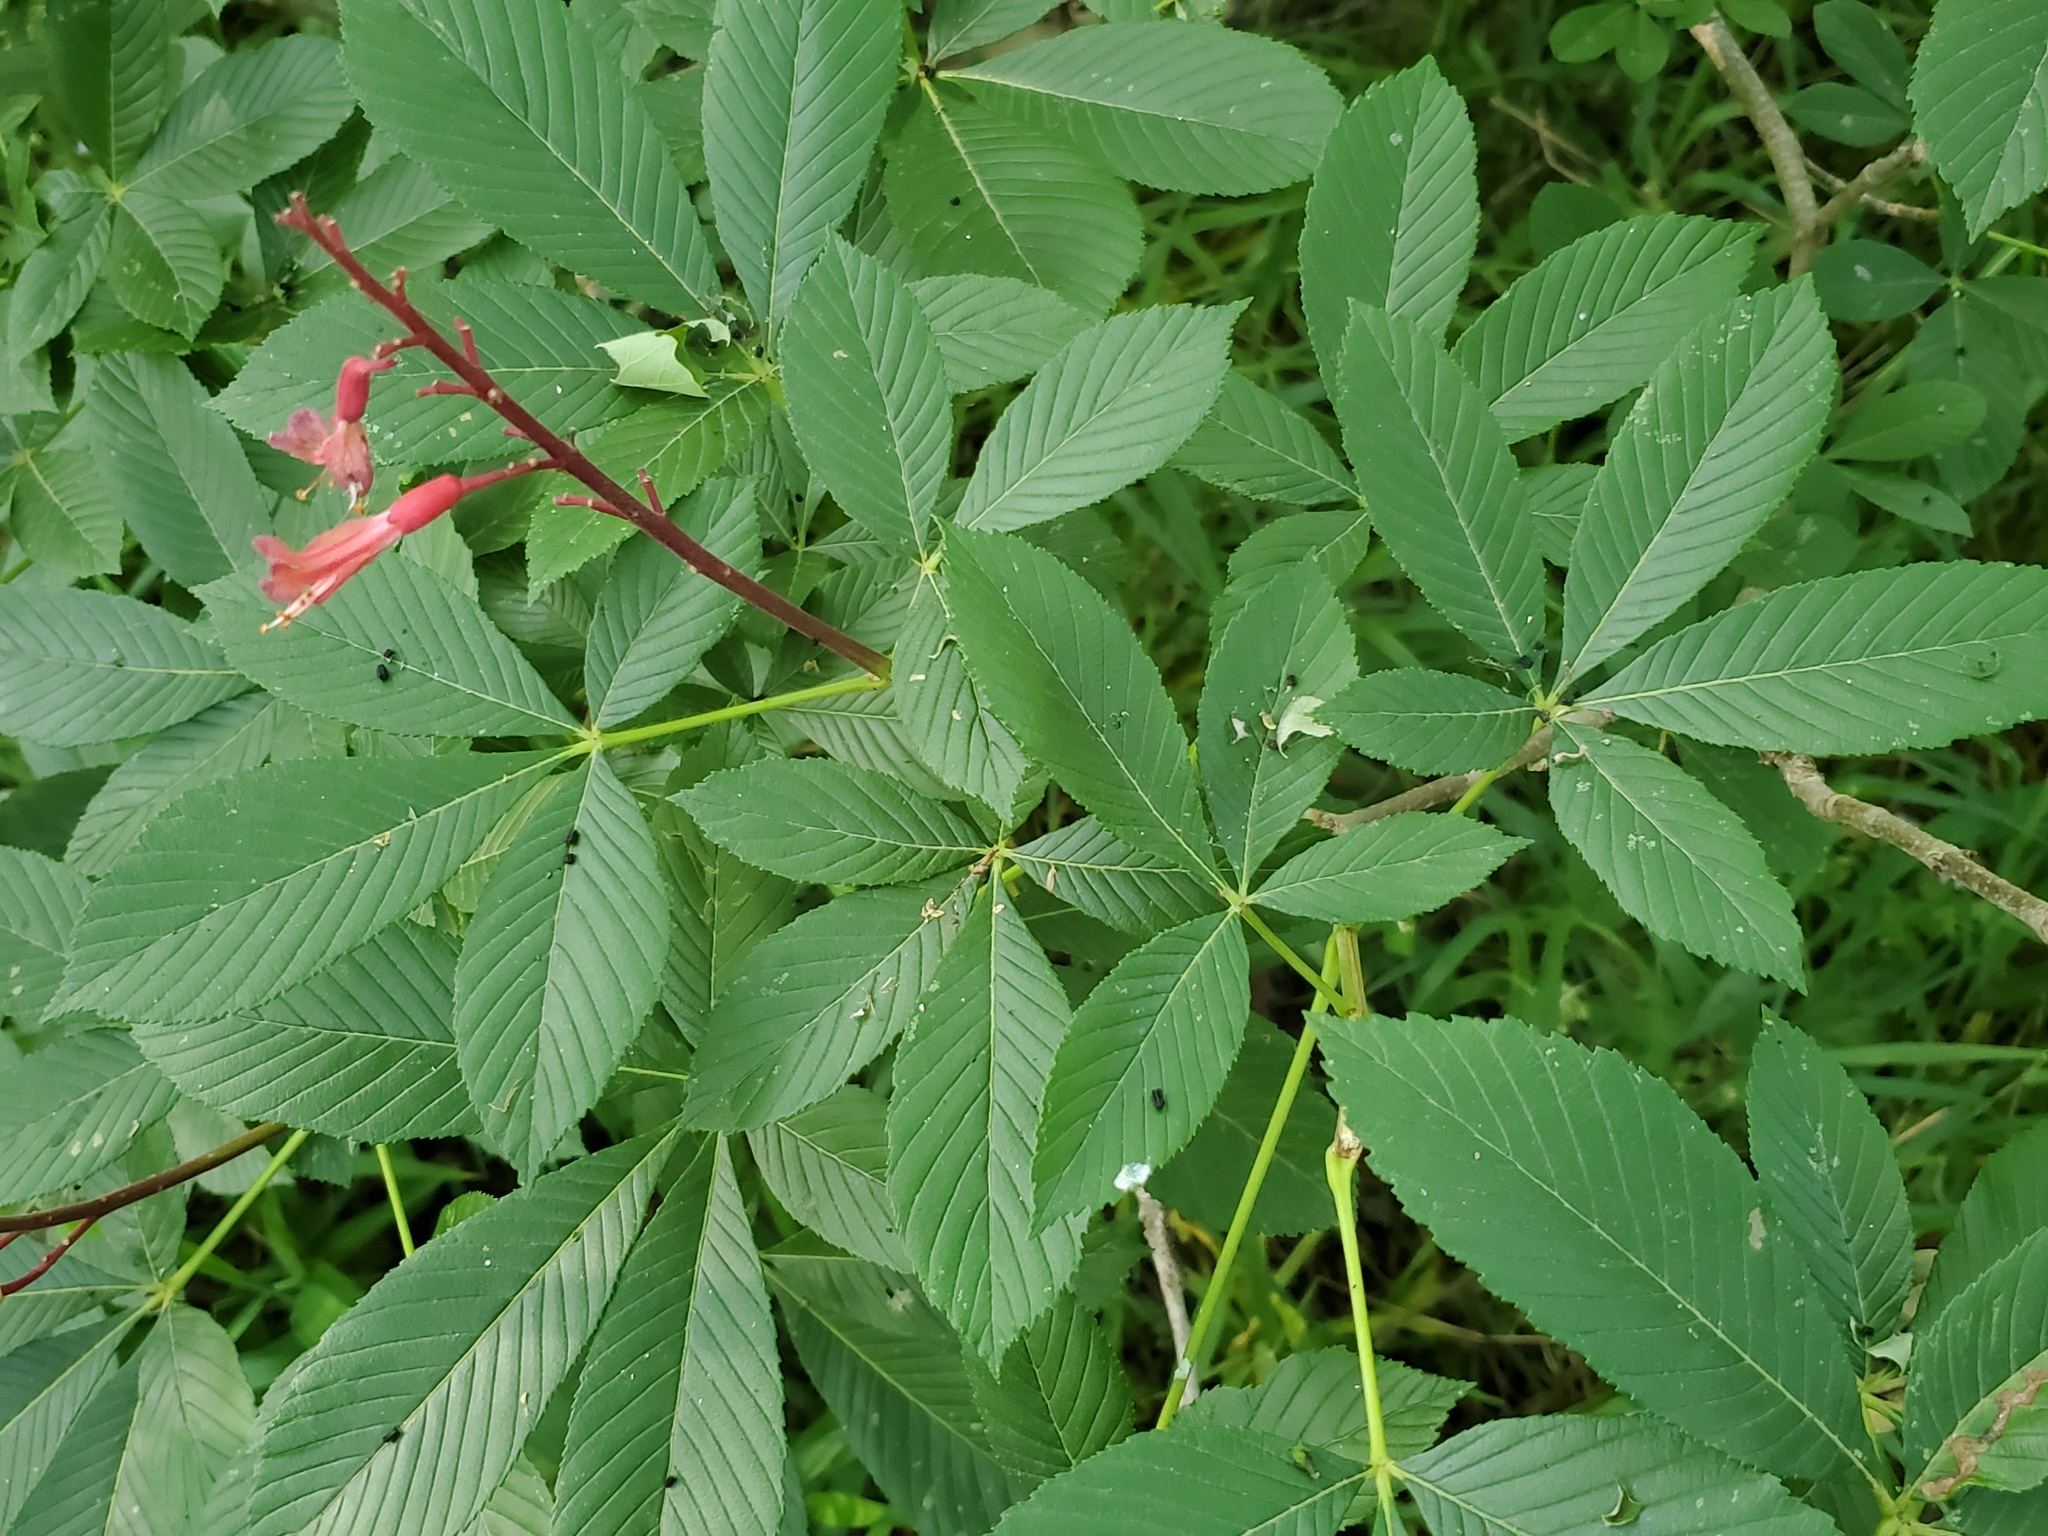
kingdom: Plantae
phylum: Tracheophyta
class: Magnoliopsida
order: Sapindales
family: Sapindaceae
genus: Aesculus
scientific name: Aesculus pavia
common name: Red buckeye
